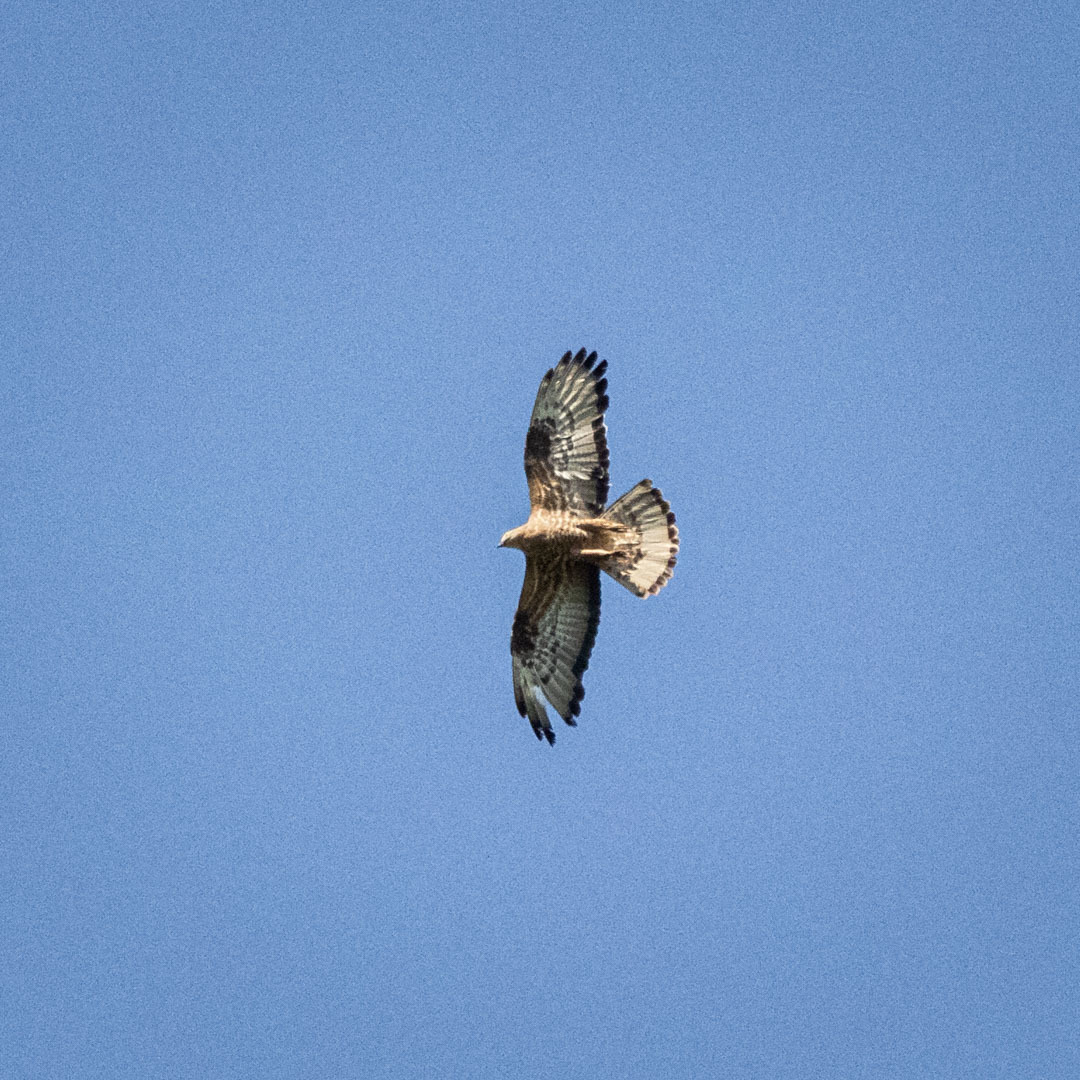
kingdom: Animalia
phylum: Chordata
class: Aves
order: Accipitriformes
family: Accipitridae
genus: Pernis
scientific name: Pernis apivorus
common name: European honey buzzard
